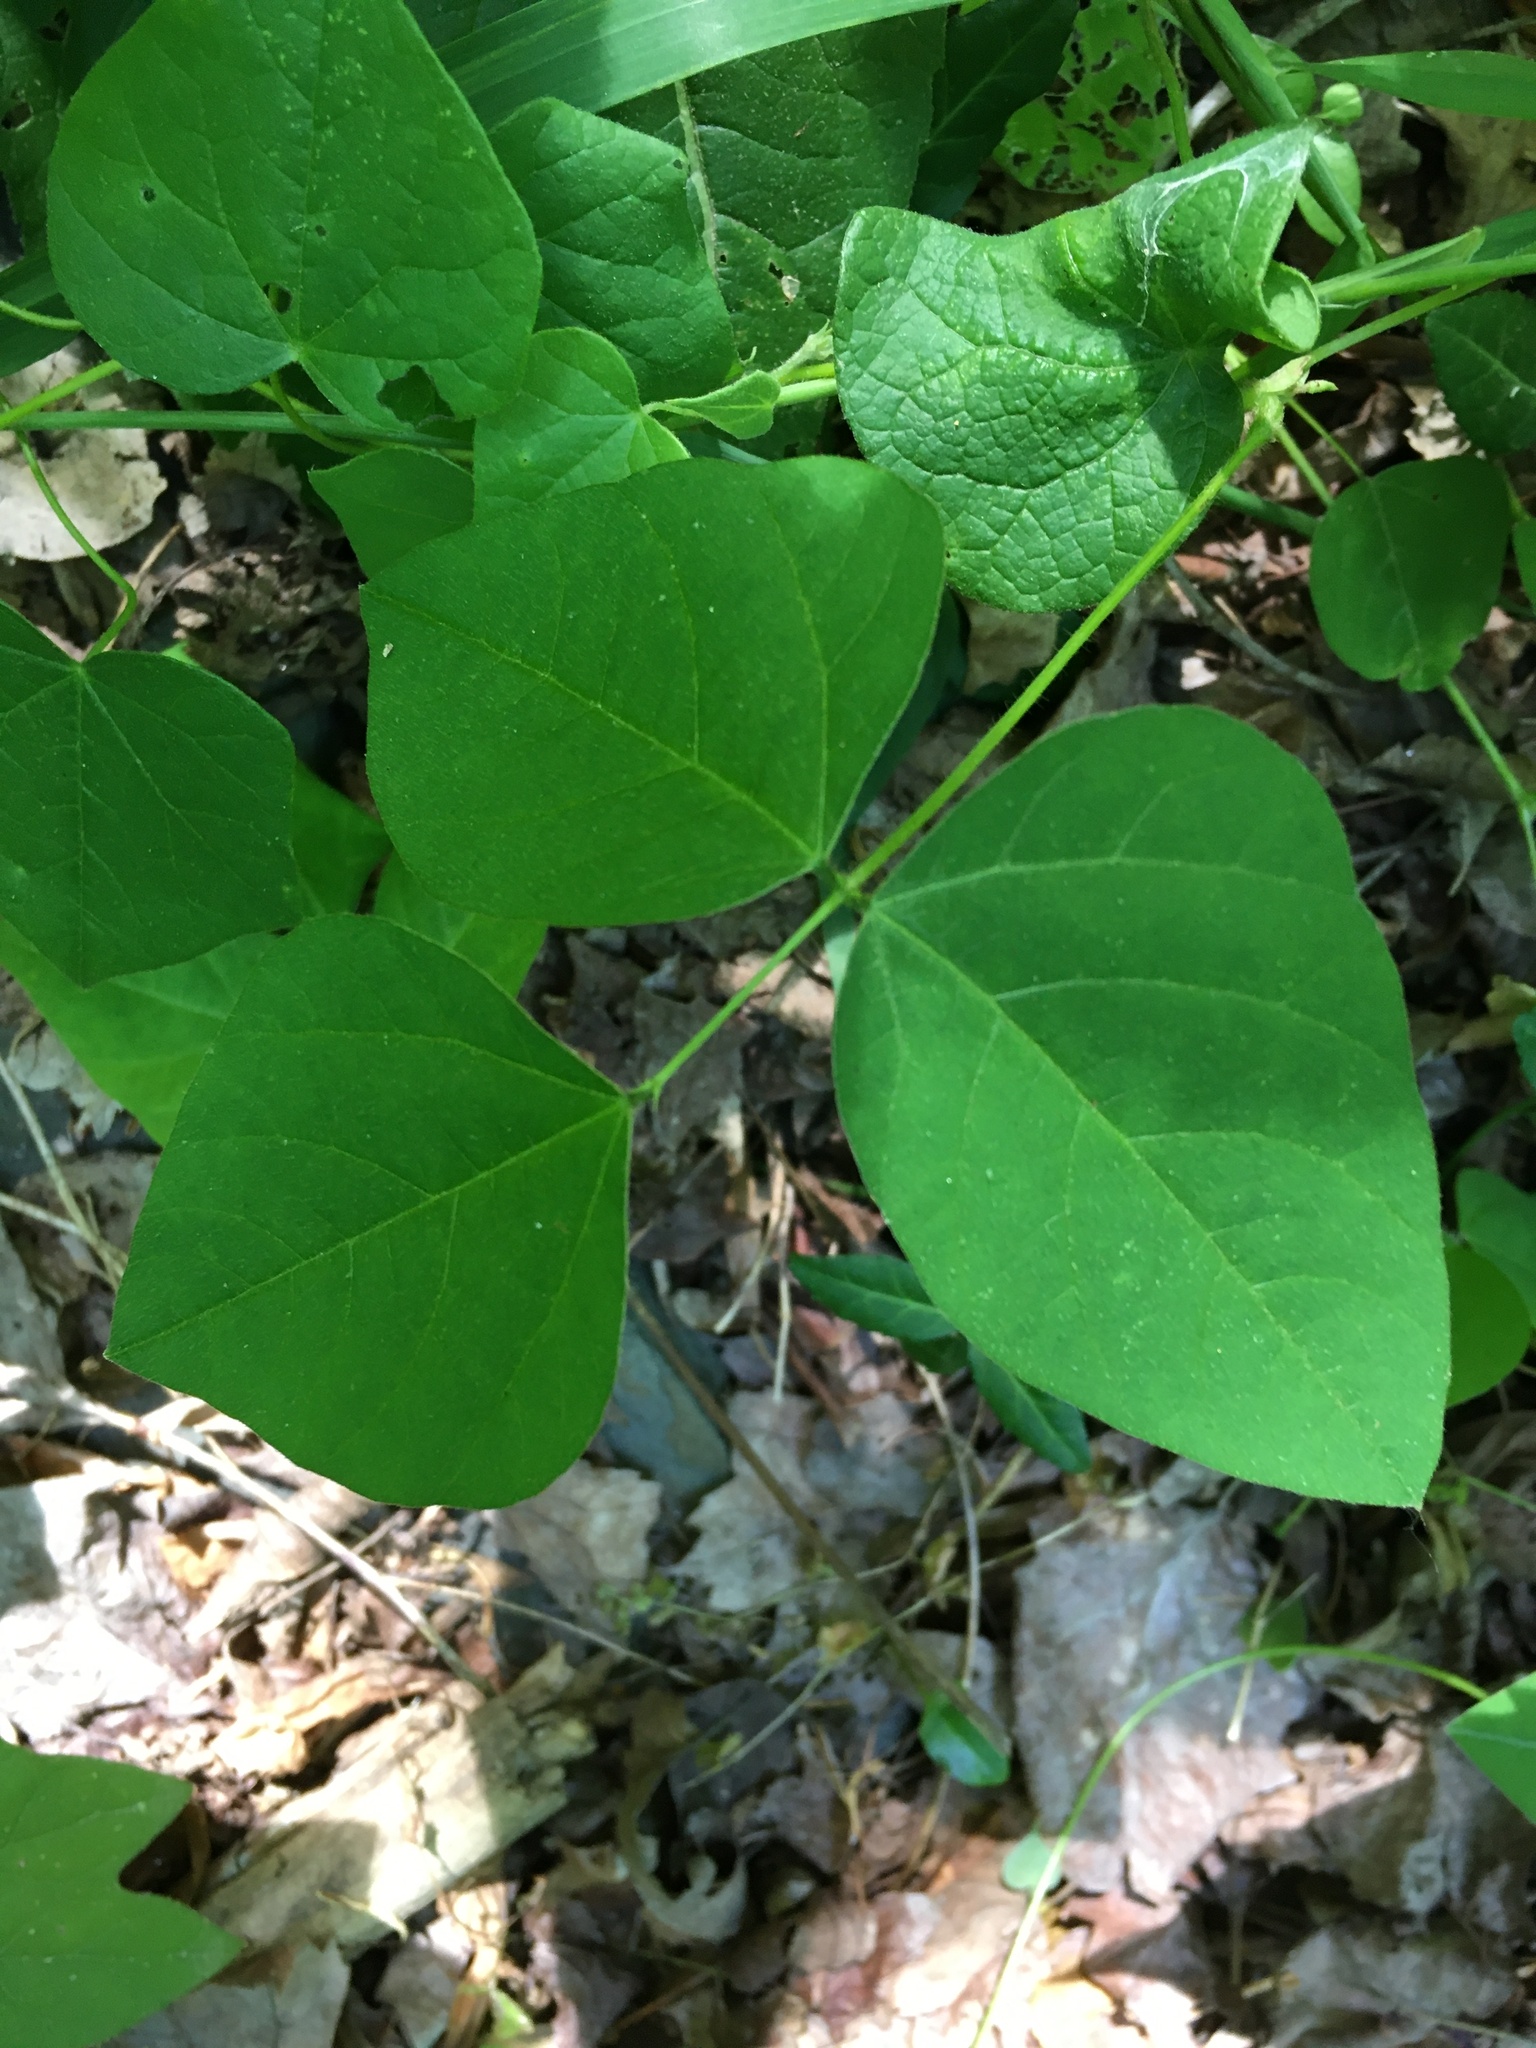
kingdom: Plantae
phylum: Tracheophyta
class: Magnoliopsida
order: Fabales
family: Fabaceae
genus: Amphicarpaea
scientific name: Amphicarpaea bracteata
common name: American hog peanut
